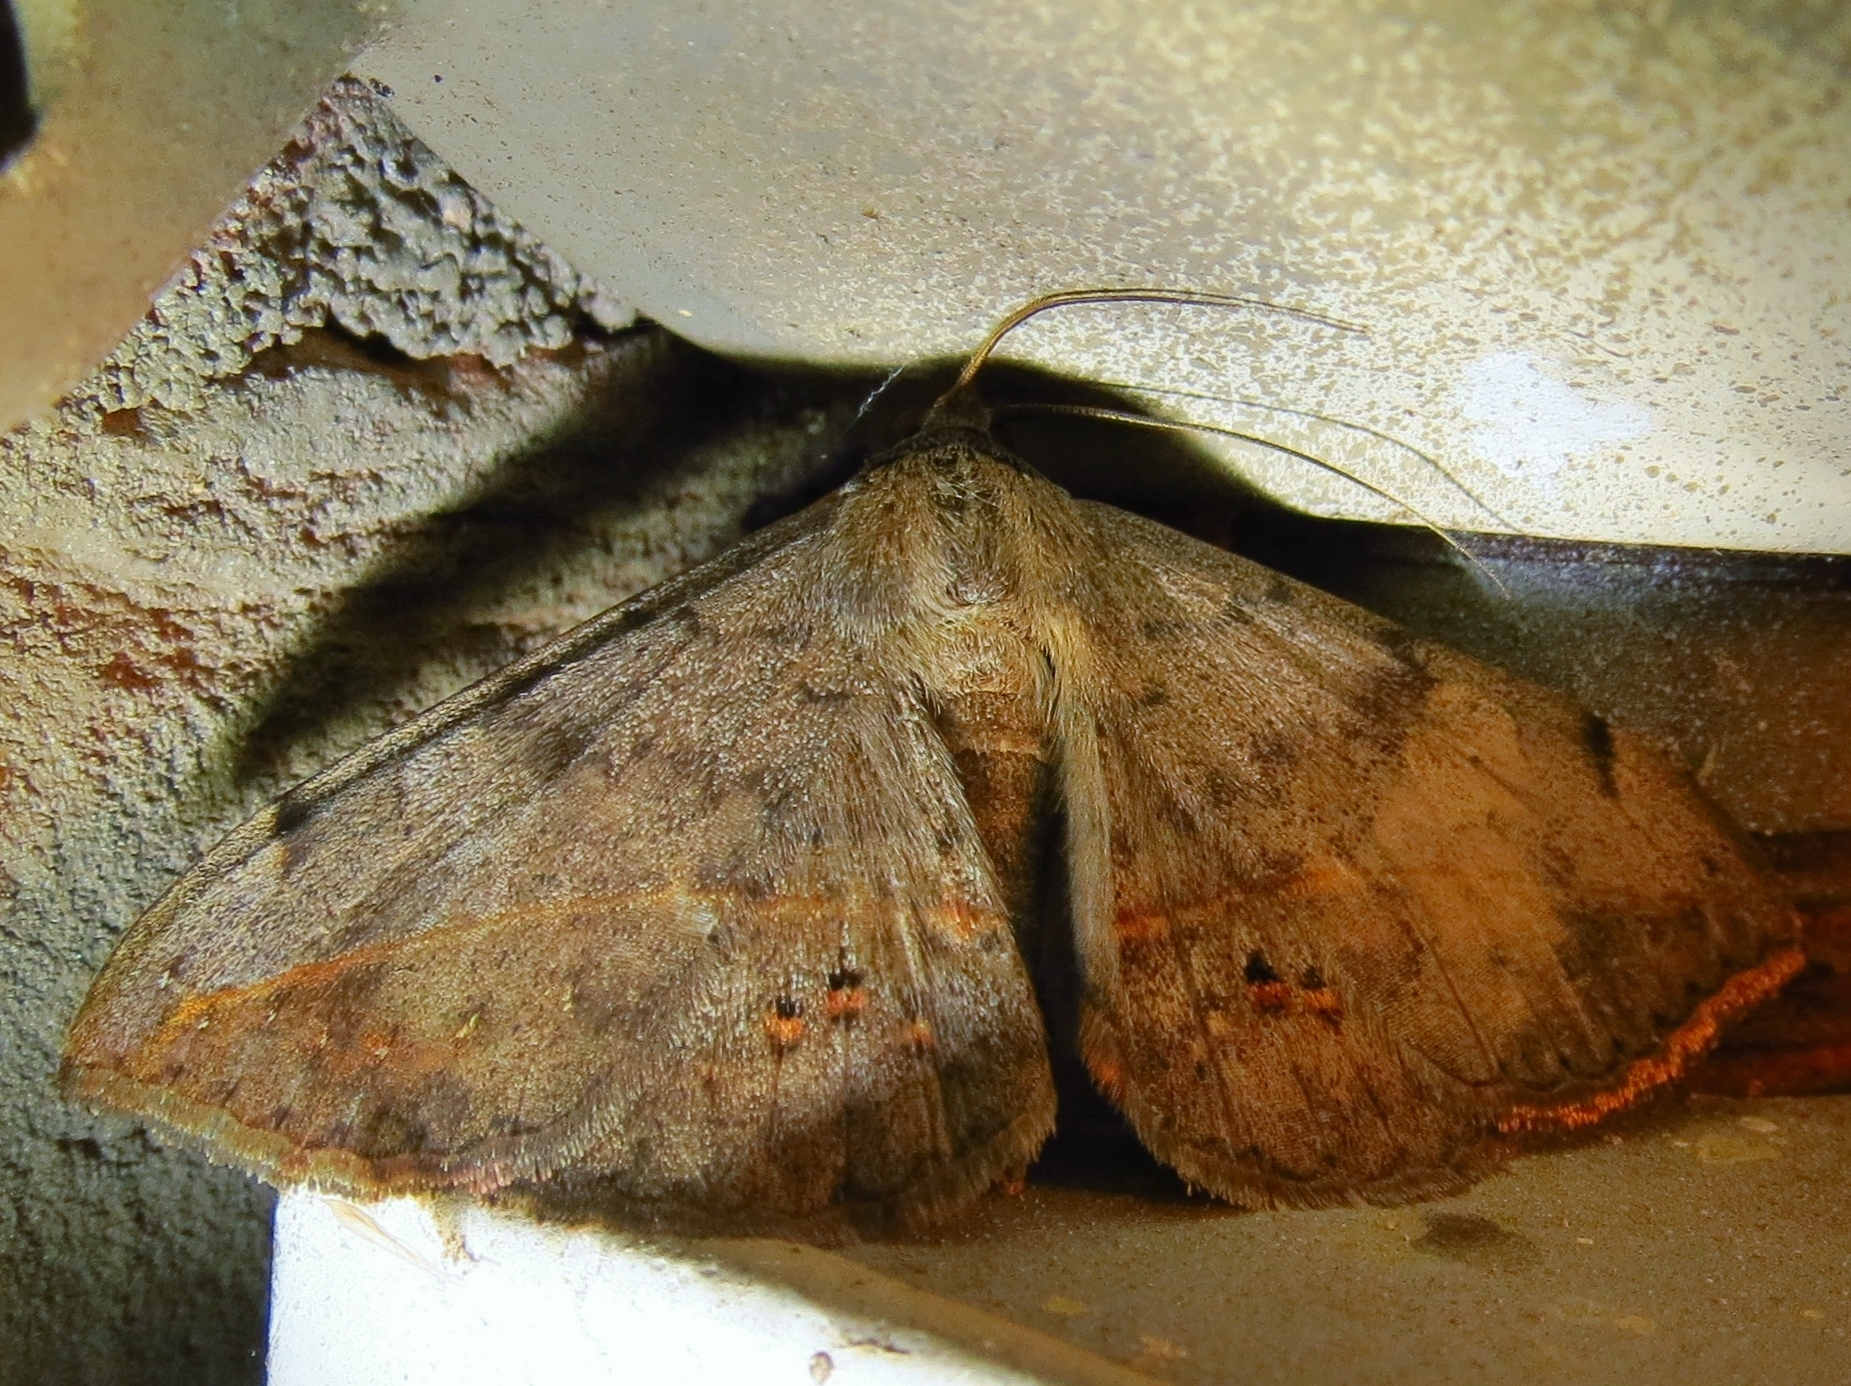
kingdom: Animalia
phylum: Arthropoda
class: Insecta
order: Lepidoptera
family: Erebidae
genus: Anticarsia
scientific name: Anticarsia gemmatalis
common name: Cutworm moth
